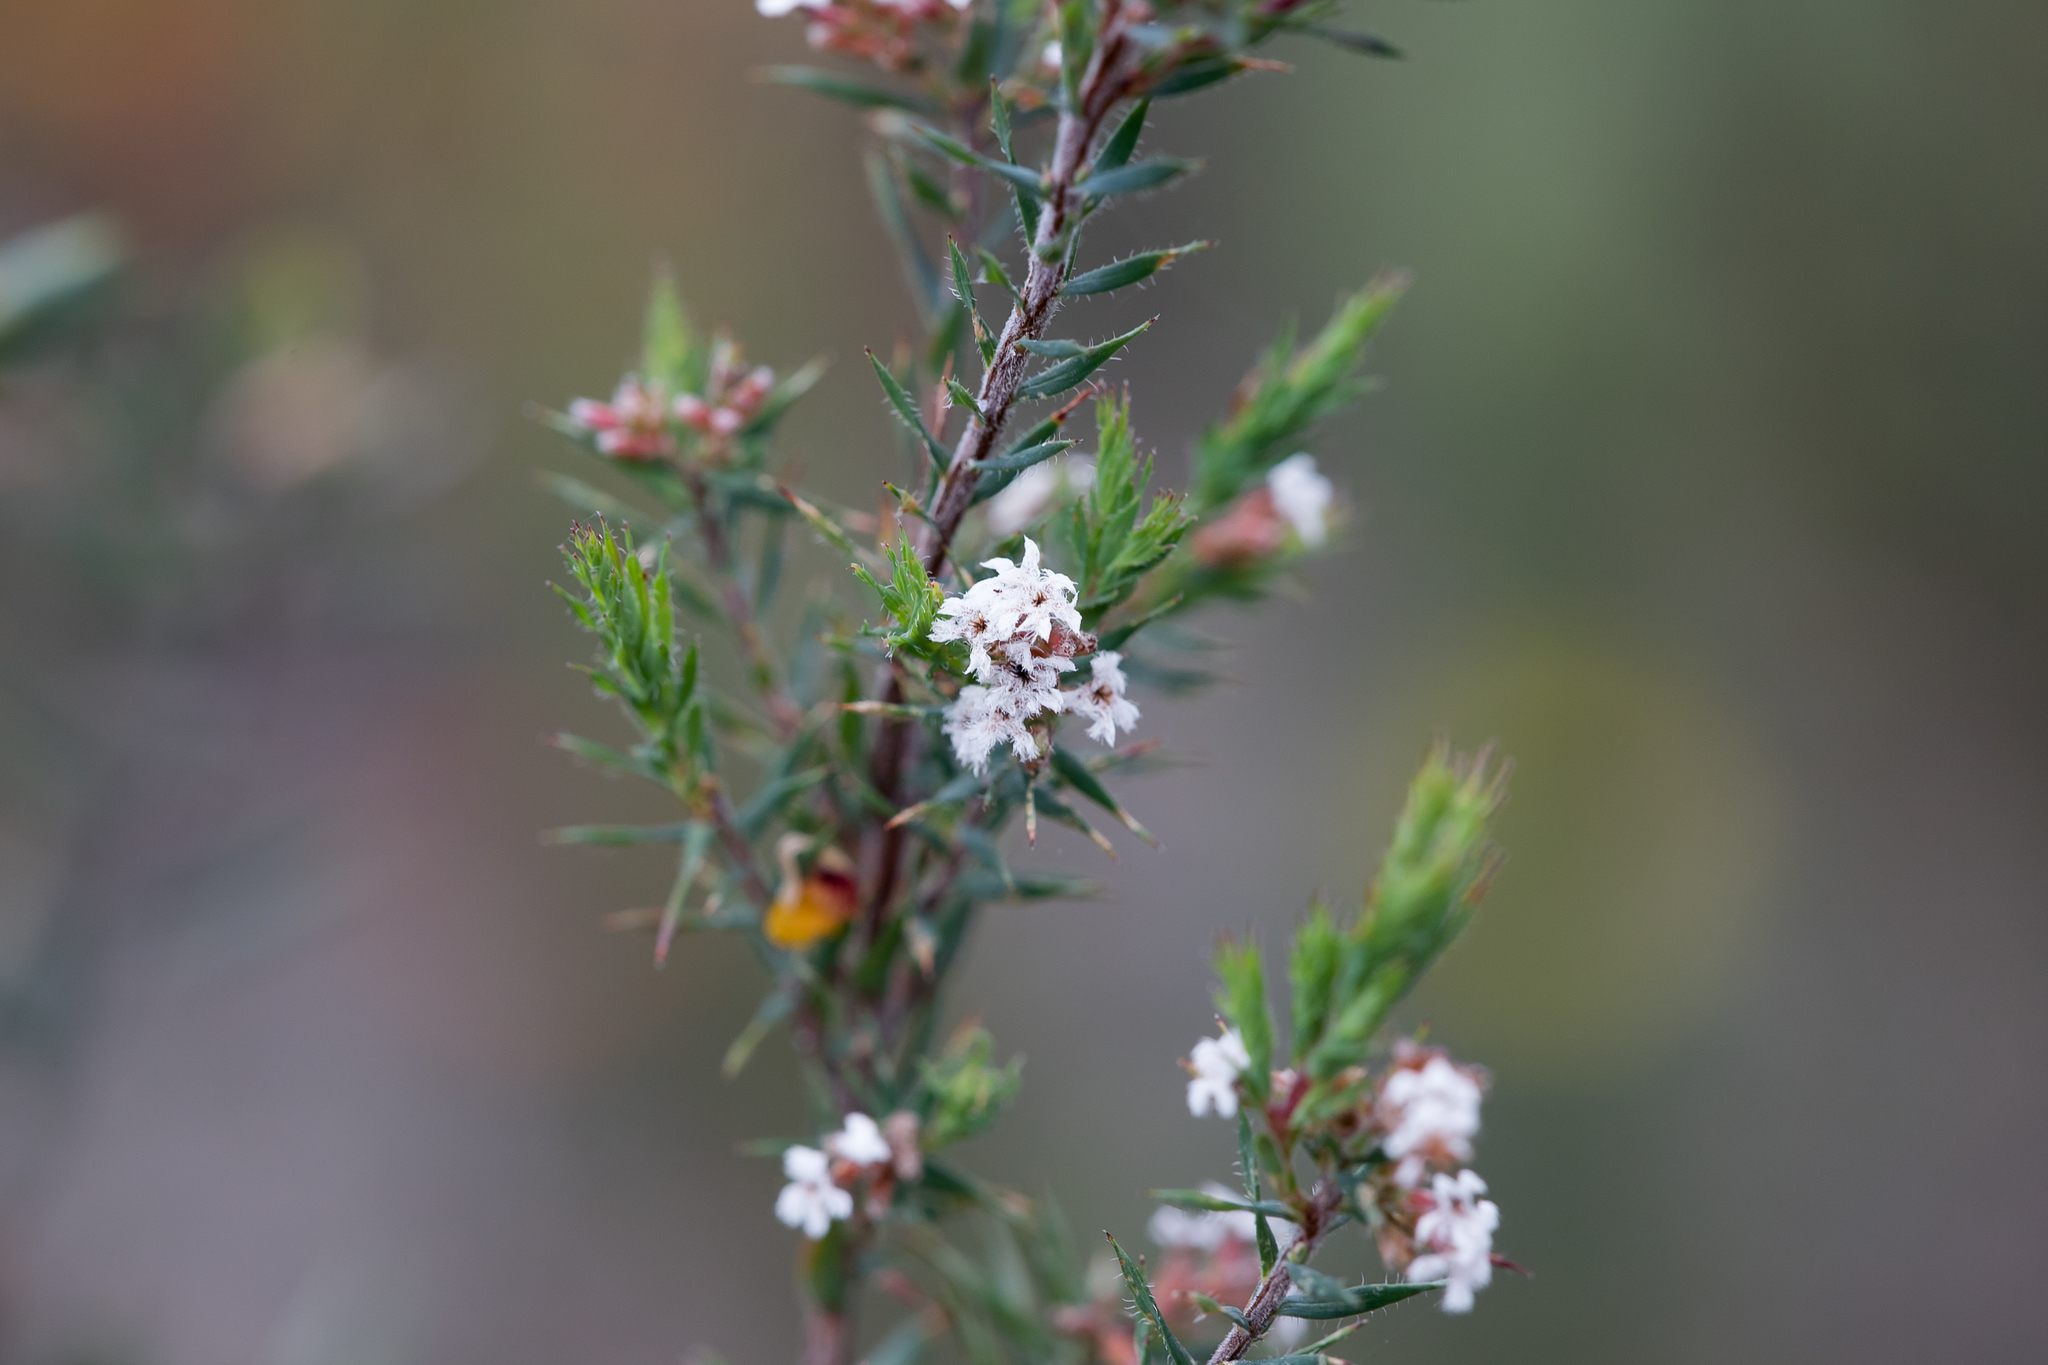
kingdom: Plantae
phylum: Tracheophyta
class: Magnoliopsida
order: Ericales
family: Ericaceae
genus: Leucopogon
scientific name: Leucopogon glacialis
